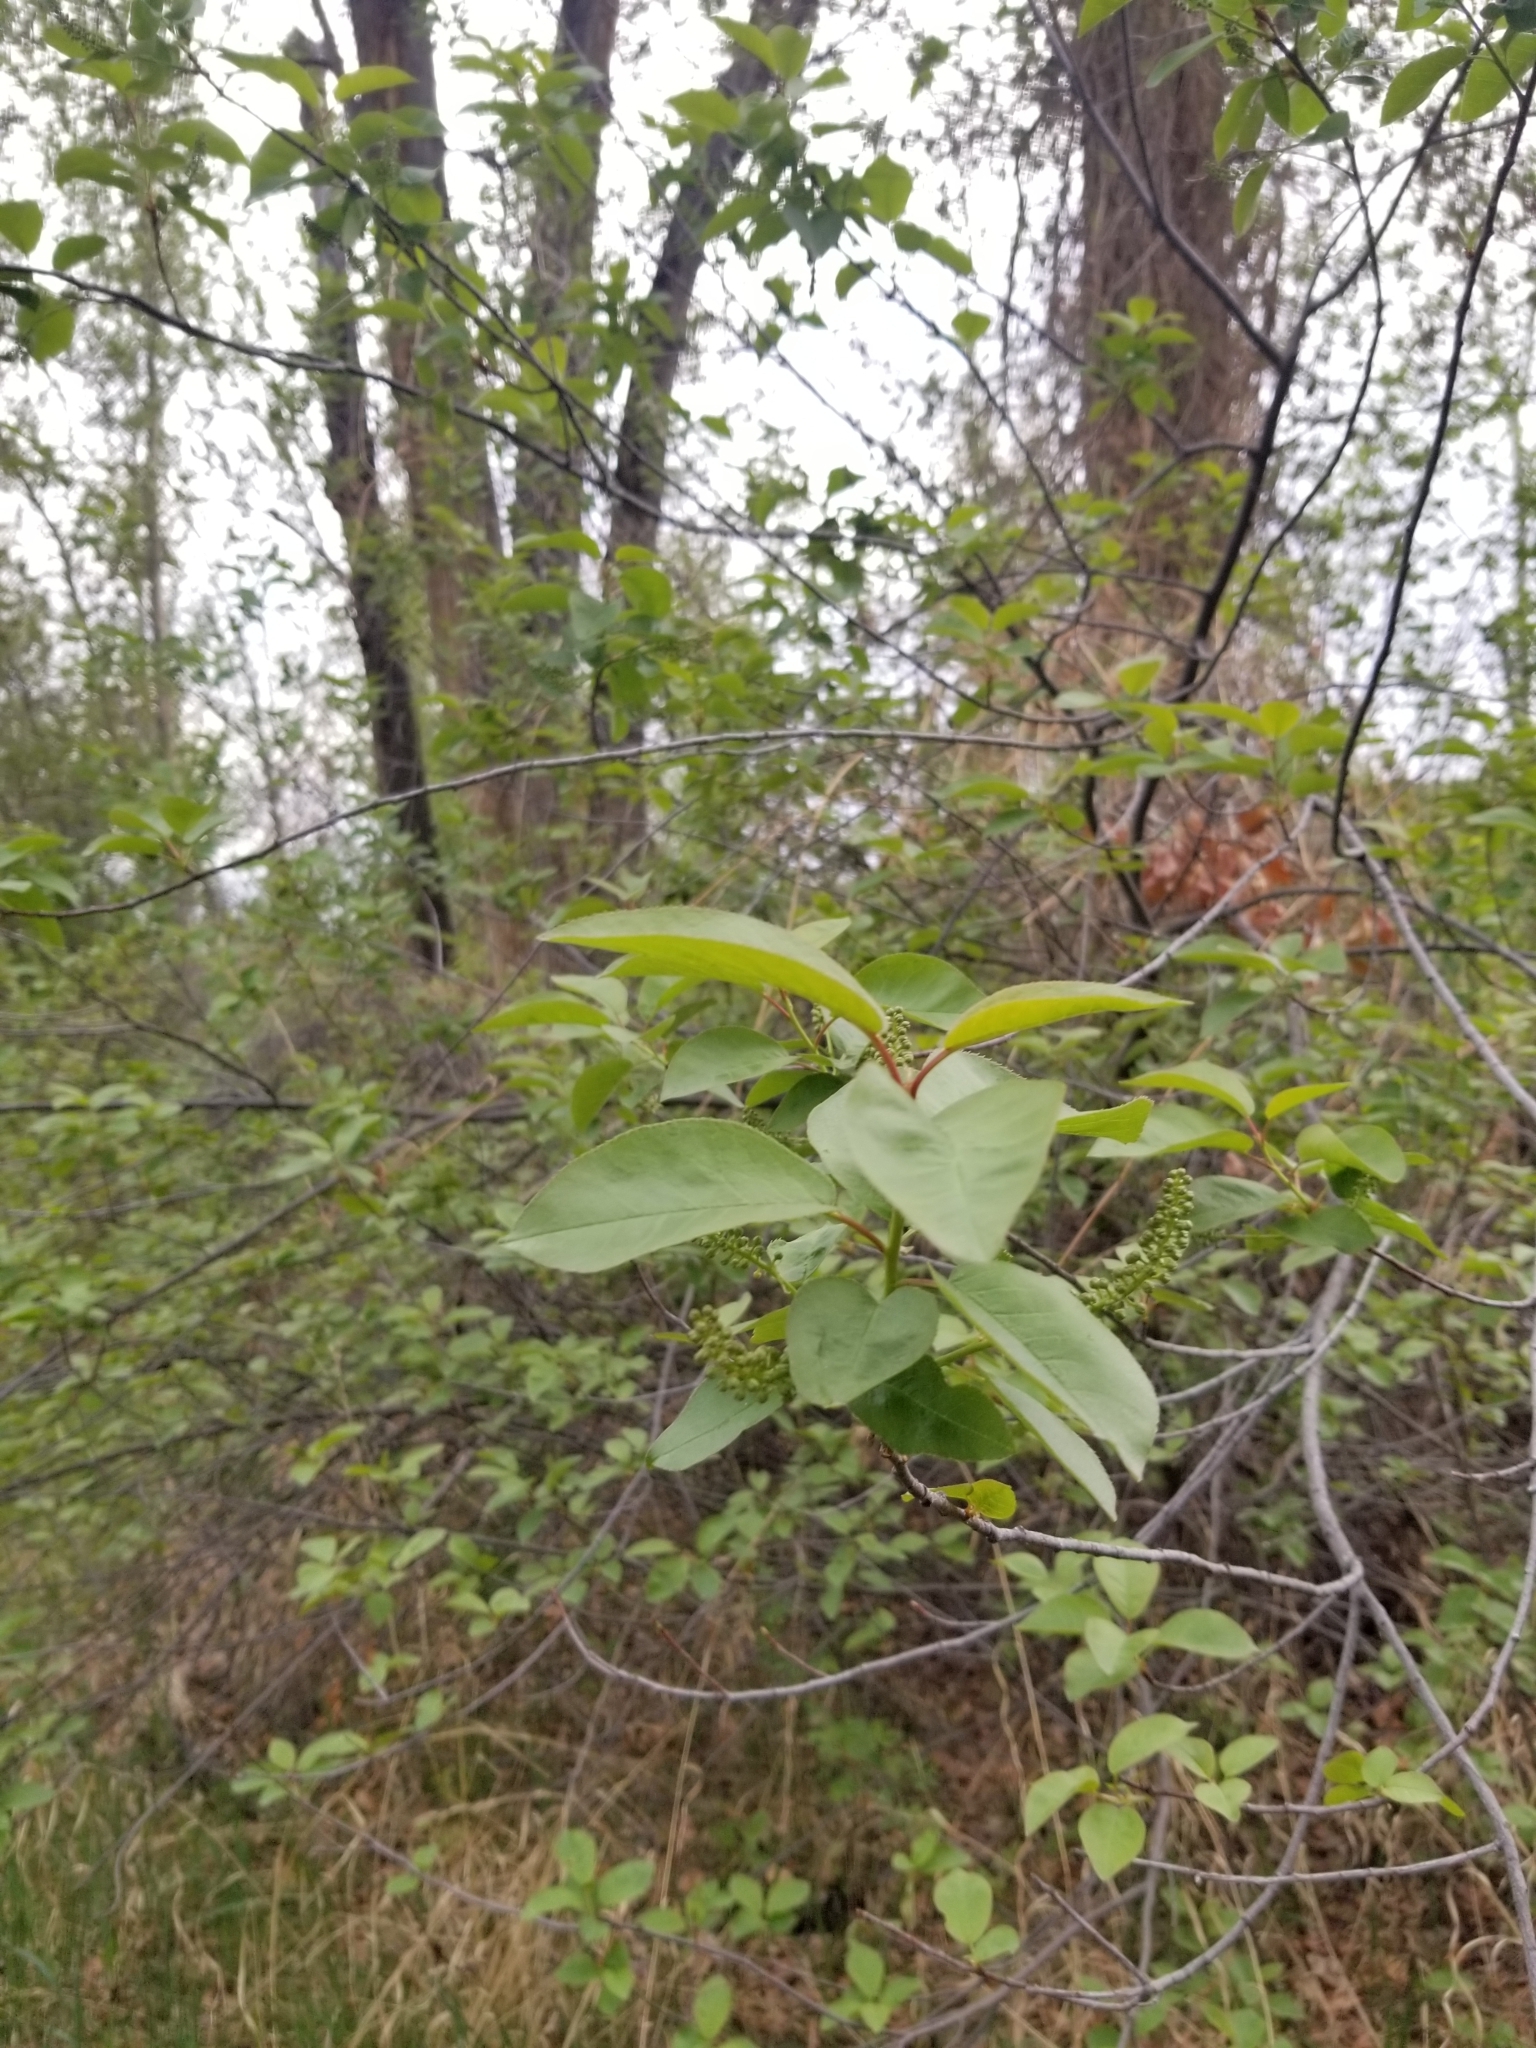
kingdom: Plantae
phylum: Tracheophyta
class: Magnoliopsida
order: Rosales
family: Rosaceae
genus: Prunus
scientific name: Prunus virginiana
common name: Chokecherry
